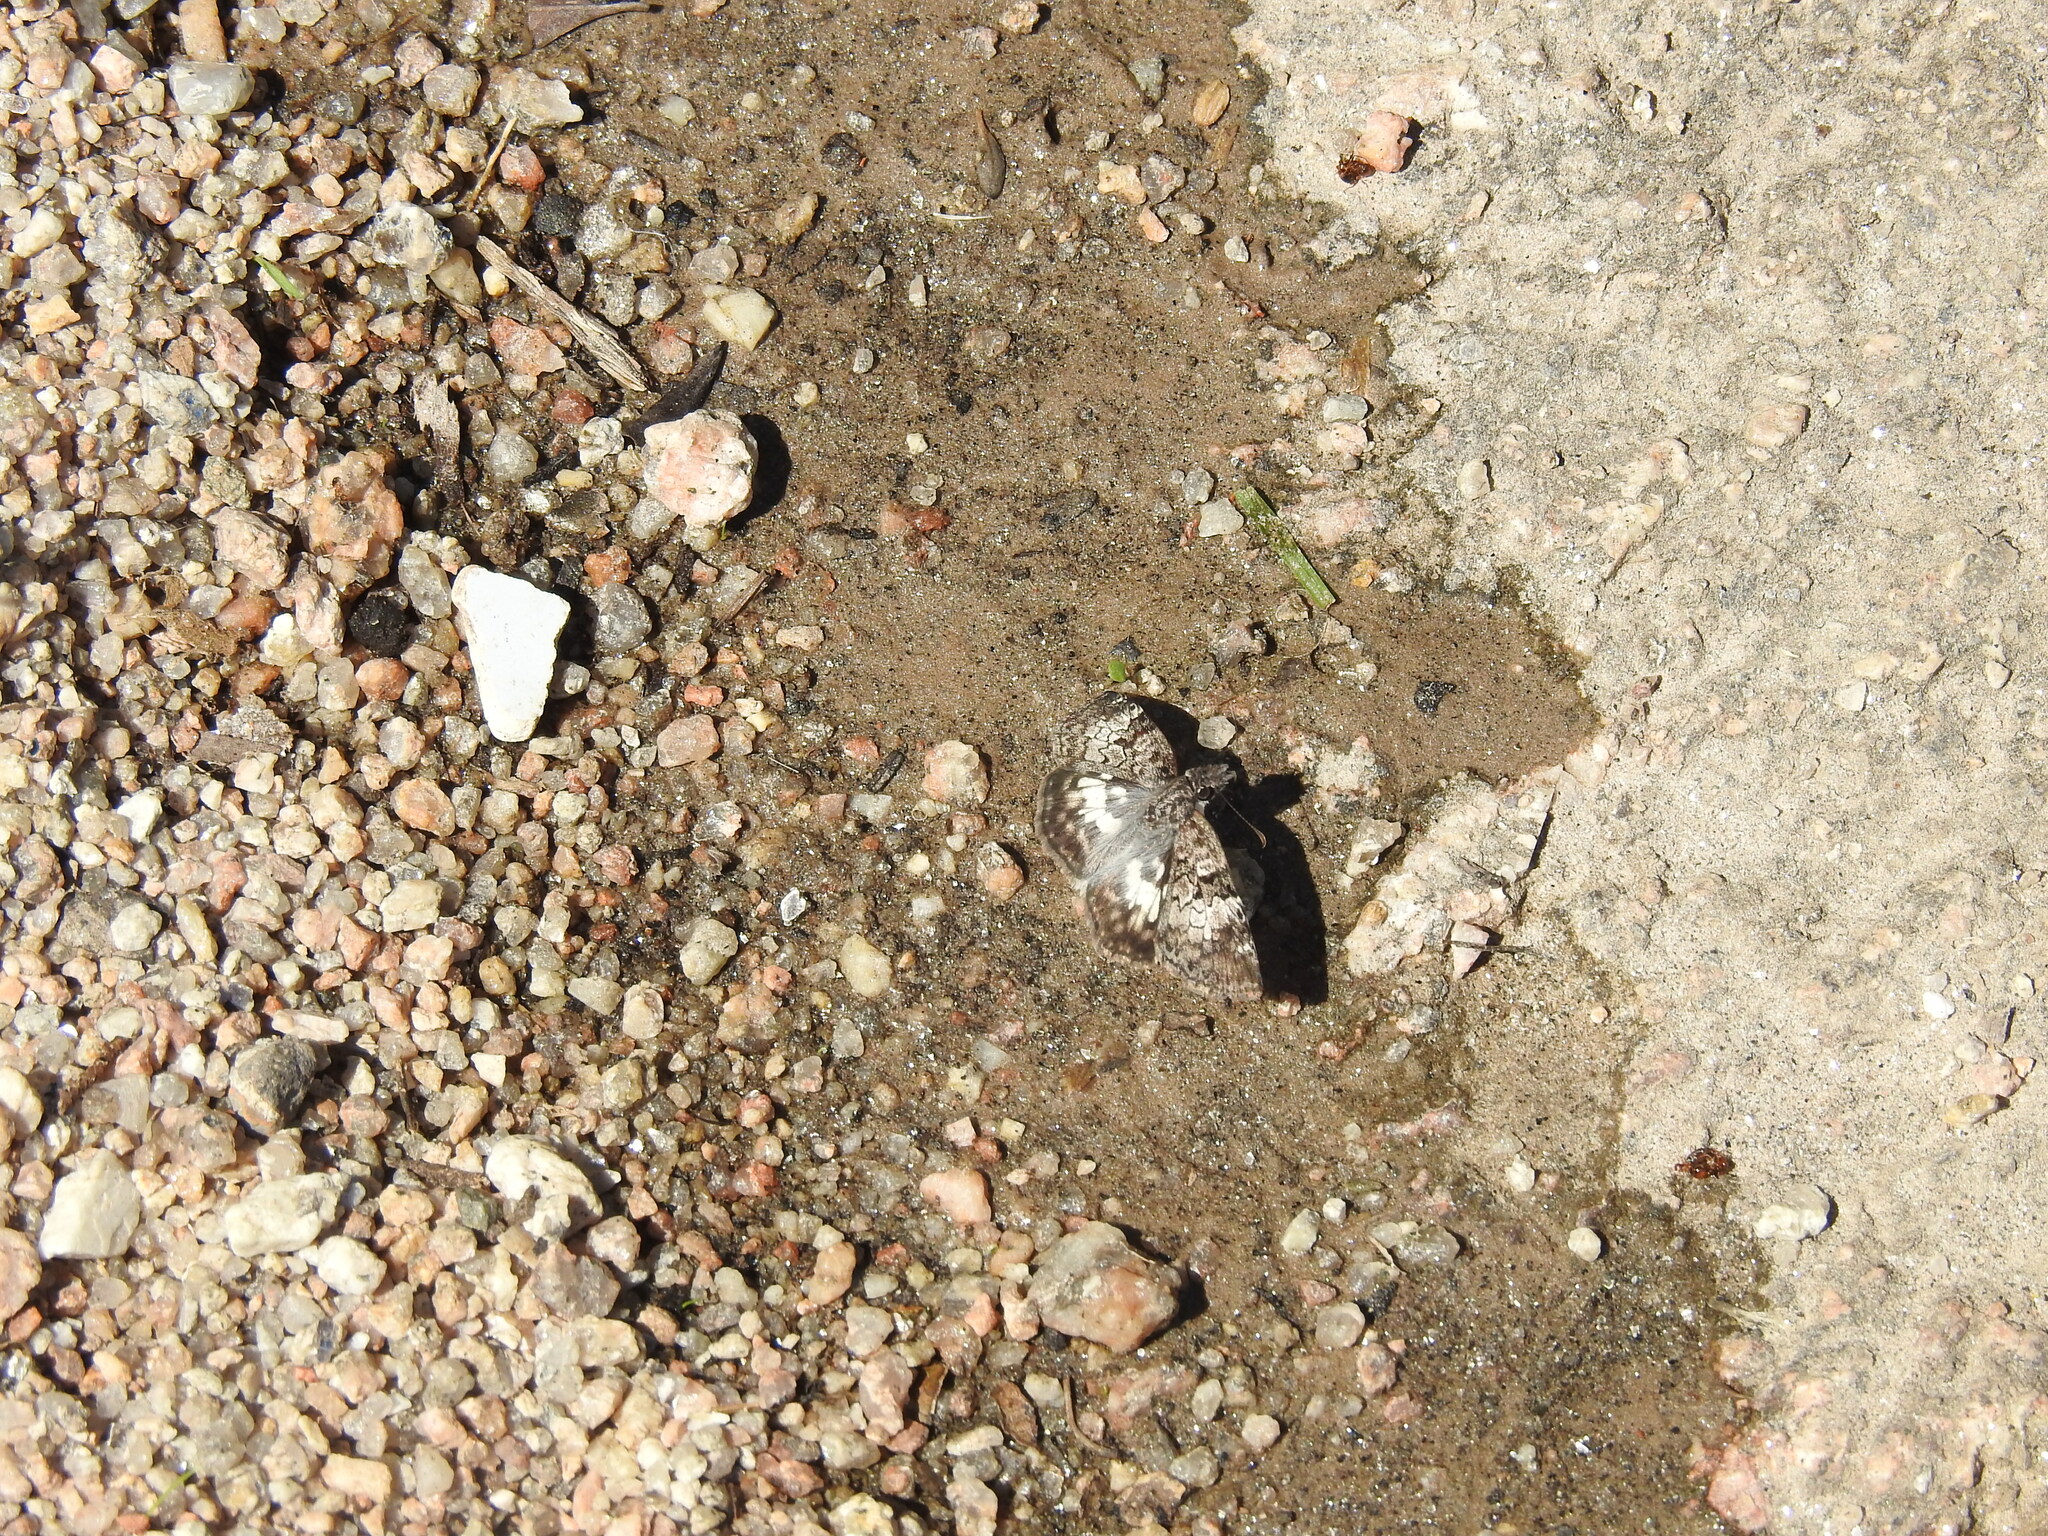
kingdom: Animalia
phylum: Arthropoda
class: Insecta
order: Lepidoptera
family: Hesperiidae
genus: Chiomara
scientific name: Chiomara asychis
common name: White-patterned skipper
